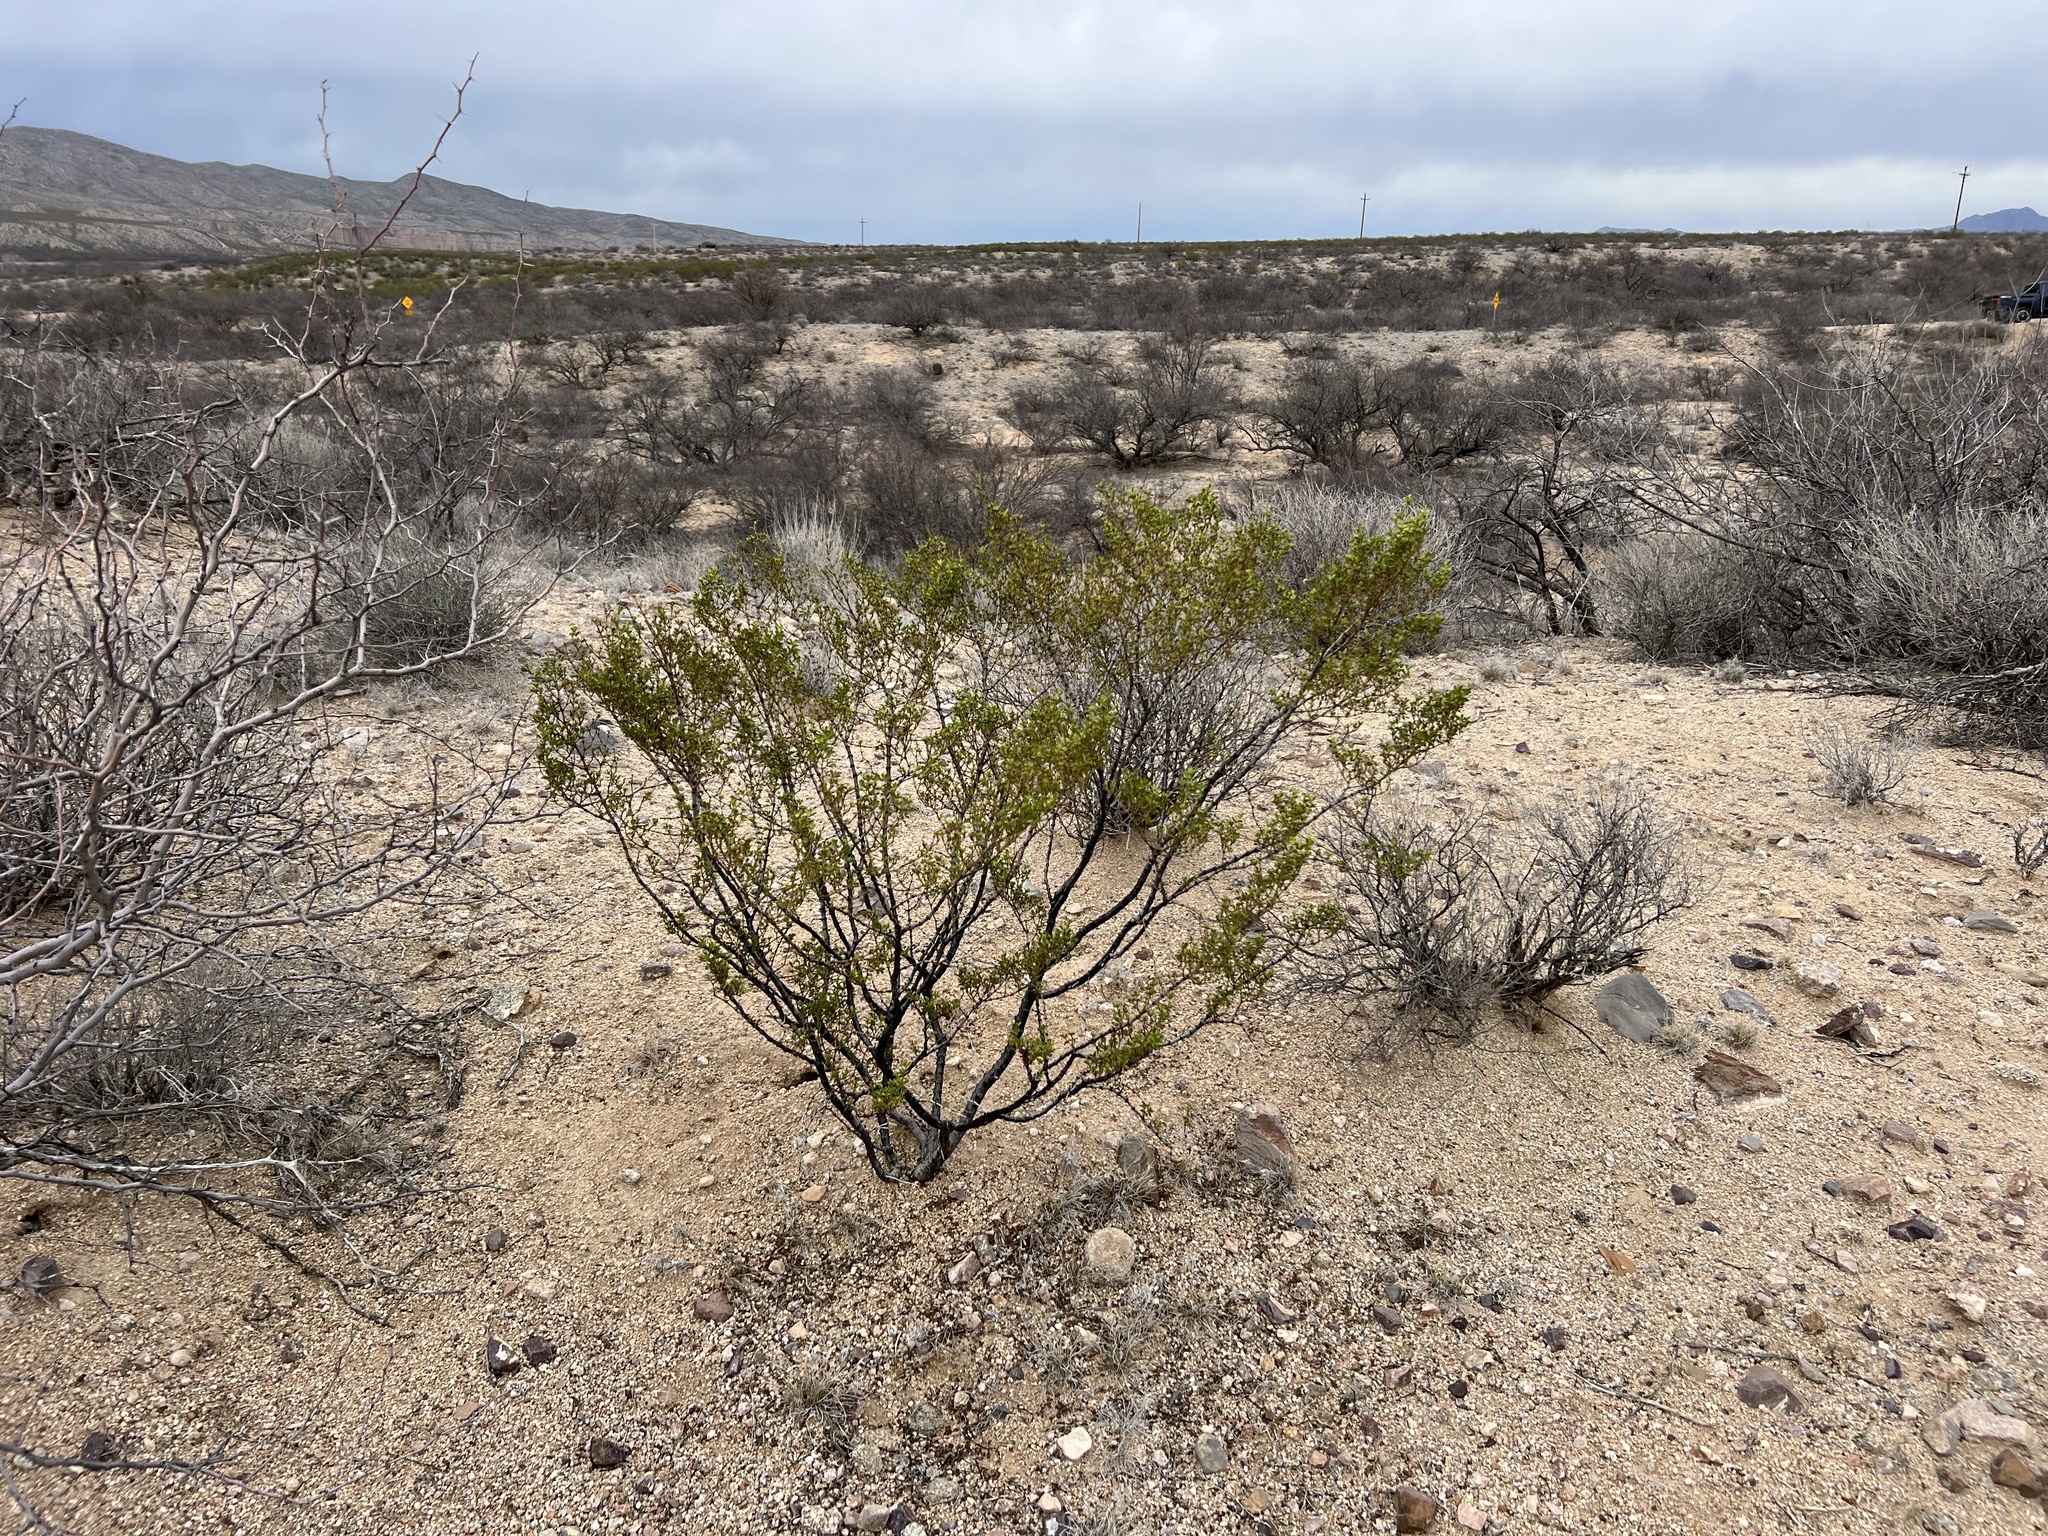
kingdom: Plantae
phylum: Tracheophyta
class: Magnoliopsida
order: Zygophyllales
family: Zygophyllaceae
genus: Larrea
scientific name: Larrea tridentata
